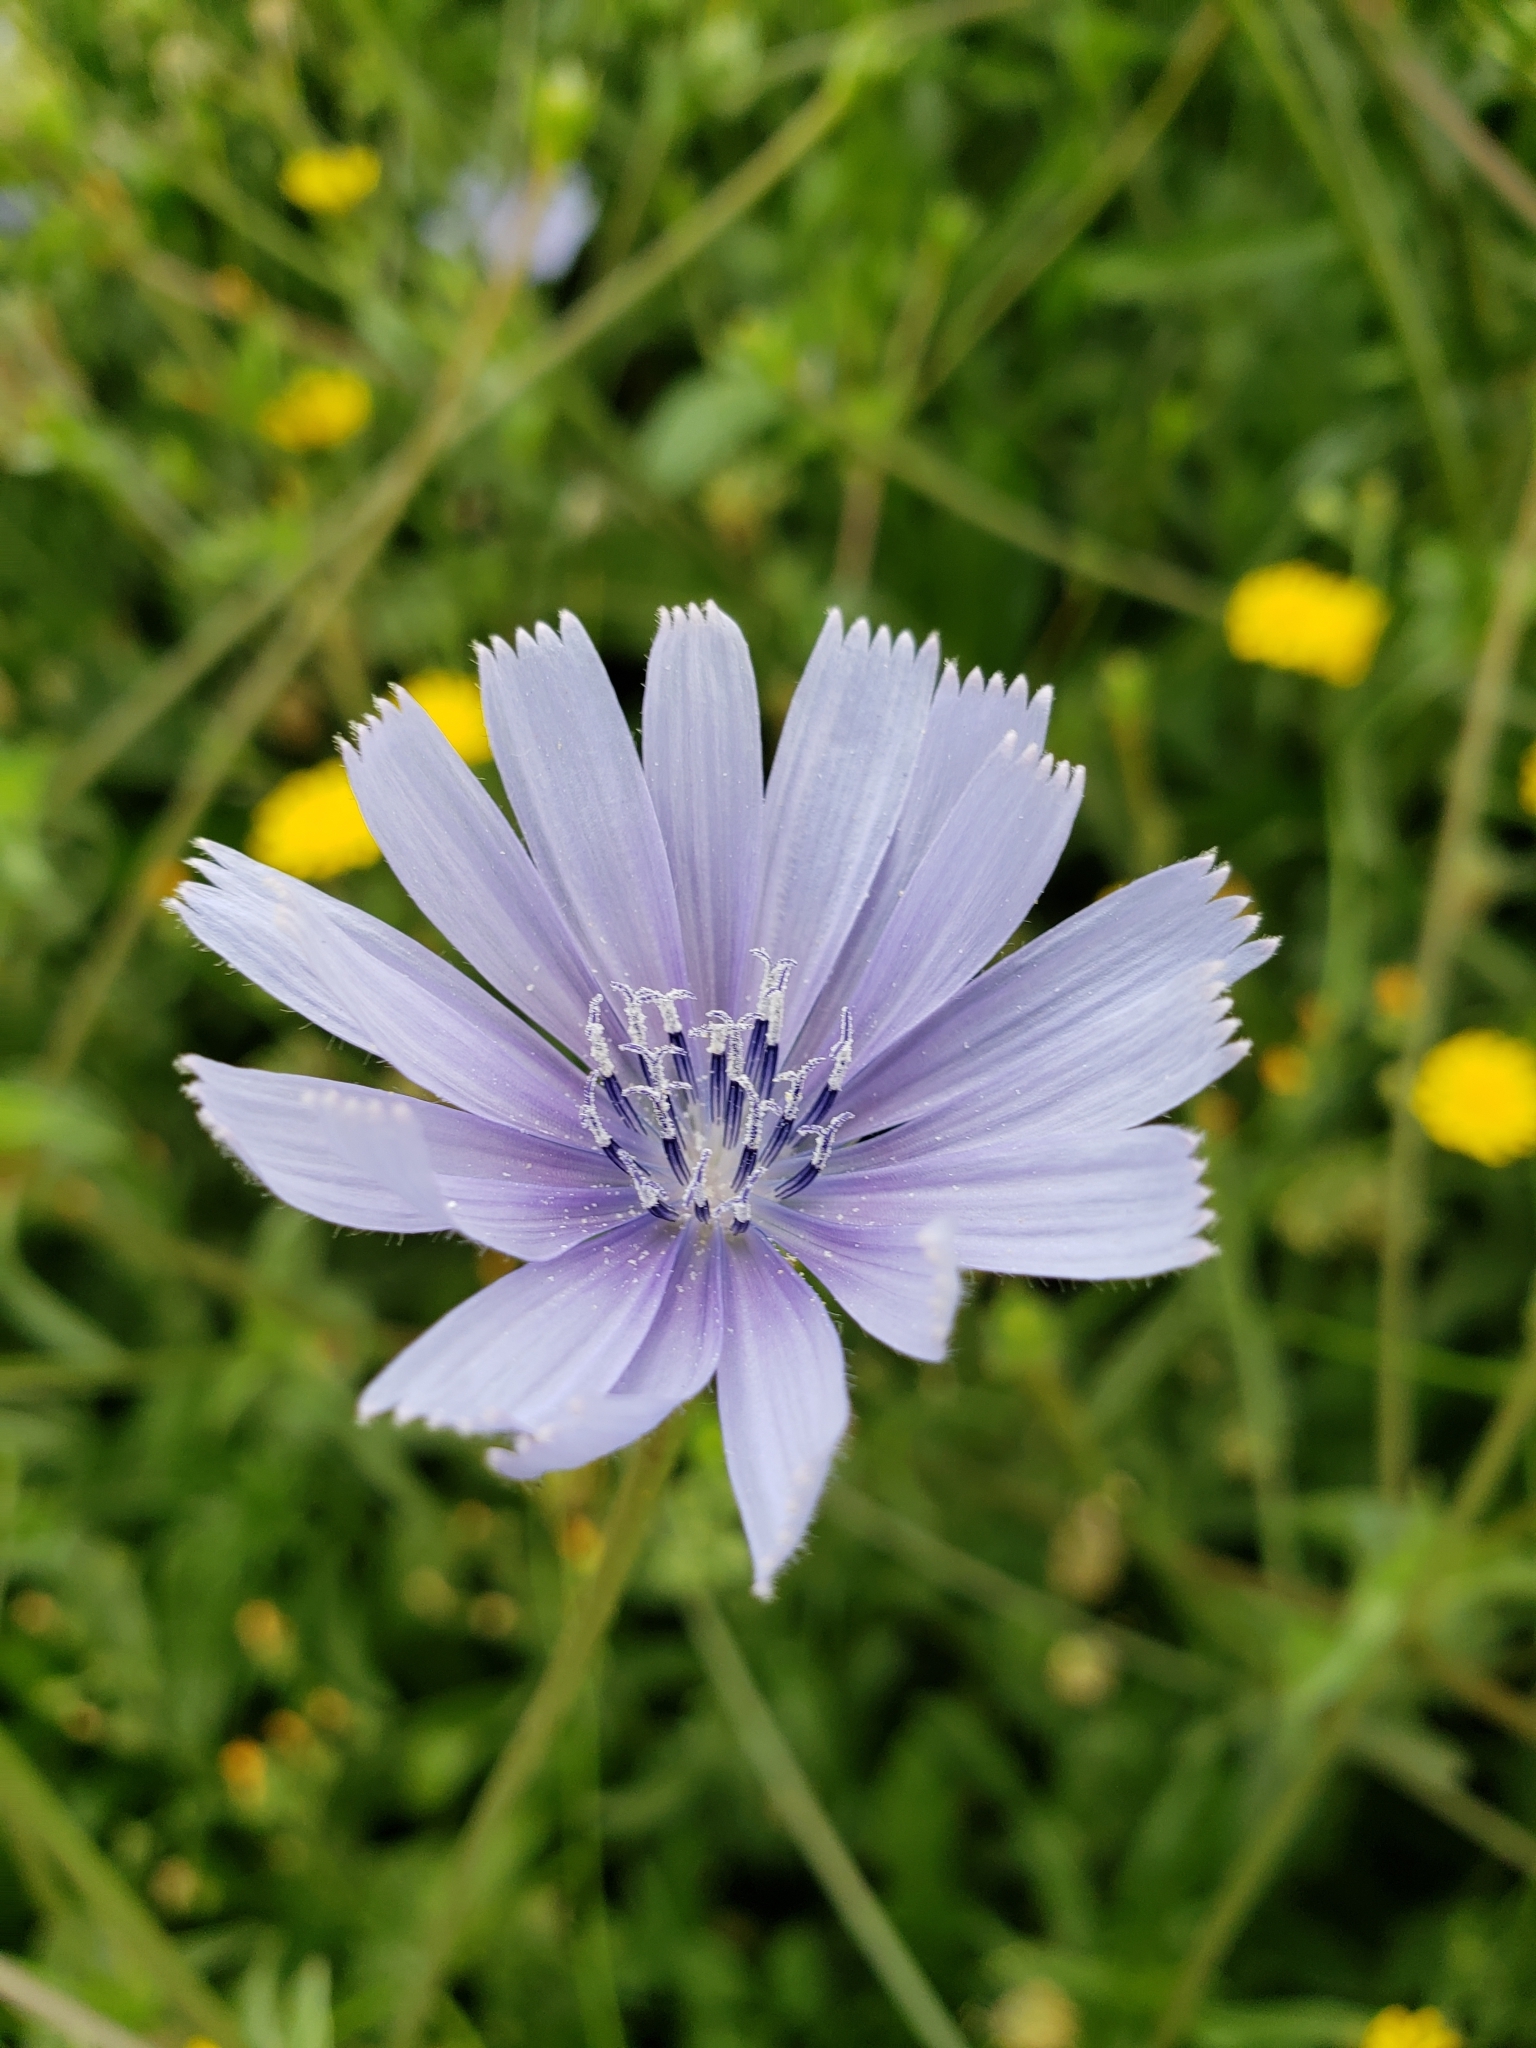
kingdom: Plantae
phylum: Tracheophyta
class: Magnoliopsida
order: Asterales
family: Asteraceae
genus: Cichorium
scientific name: Cichorium endivia
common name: Endive
